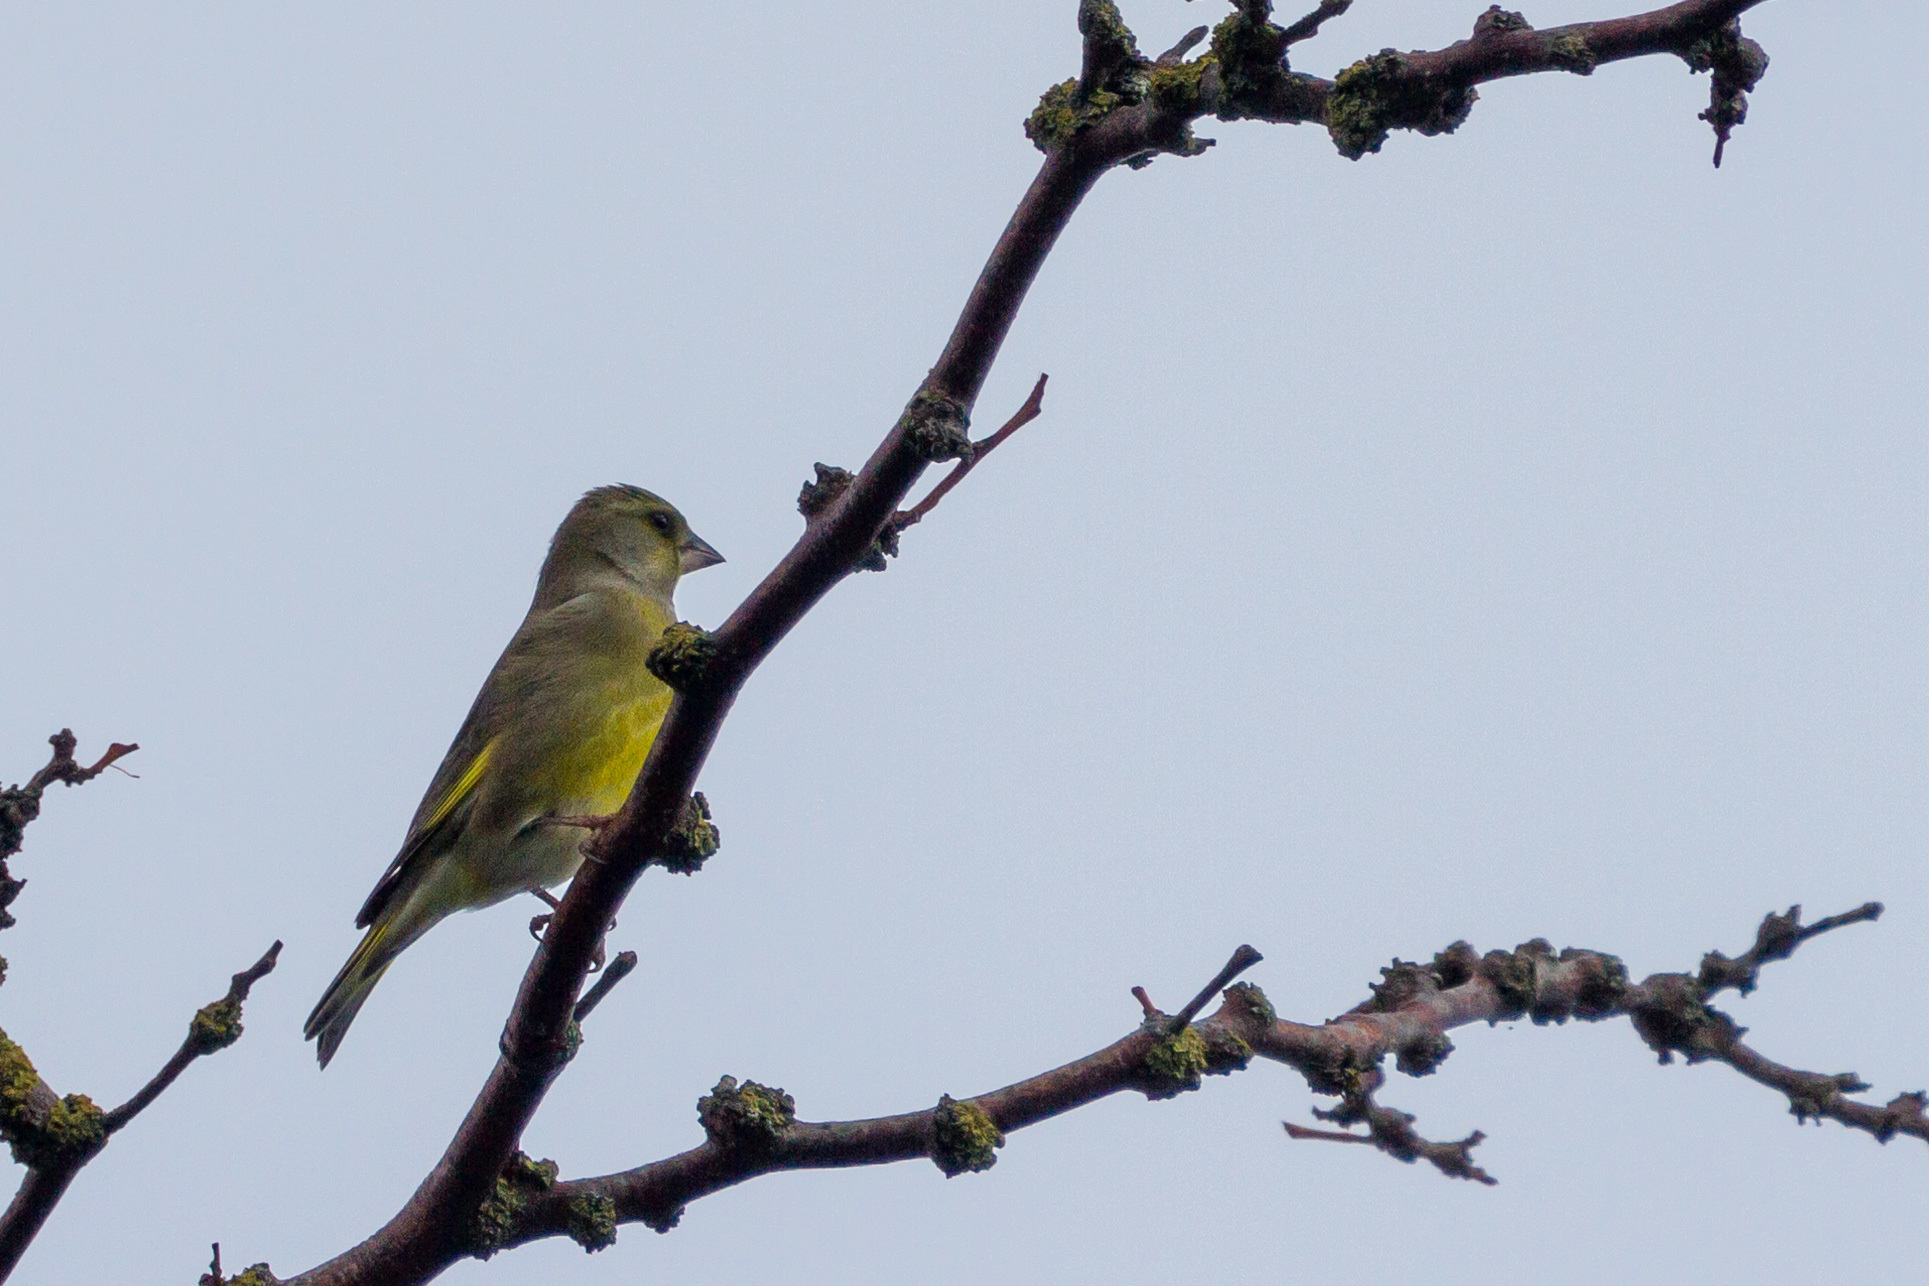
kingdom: Plantae
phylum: Tracheophyta
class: Liliopsida
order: Poales
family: Poaceae
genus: Chloris
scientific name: Chloris chloris
